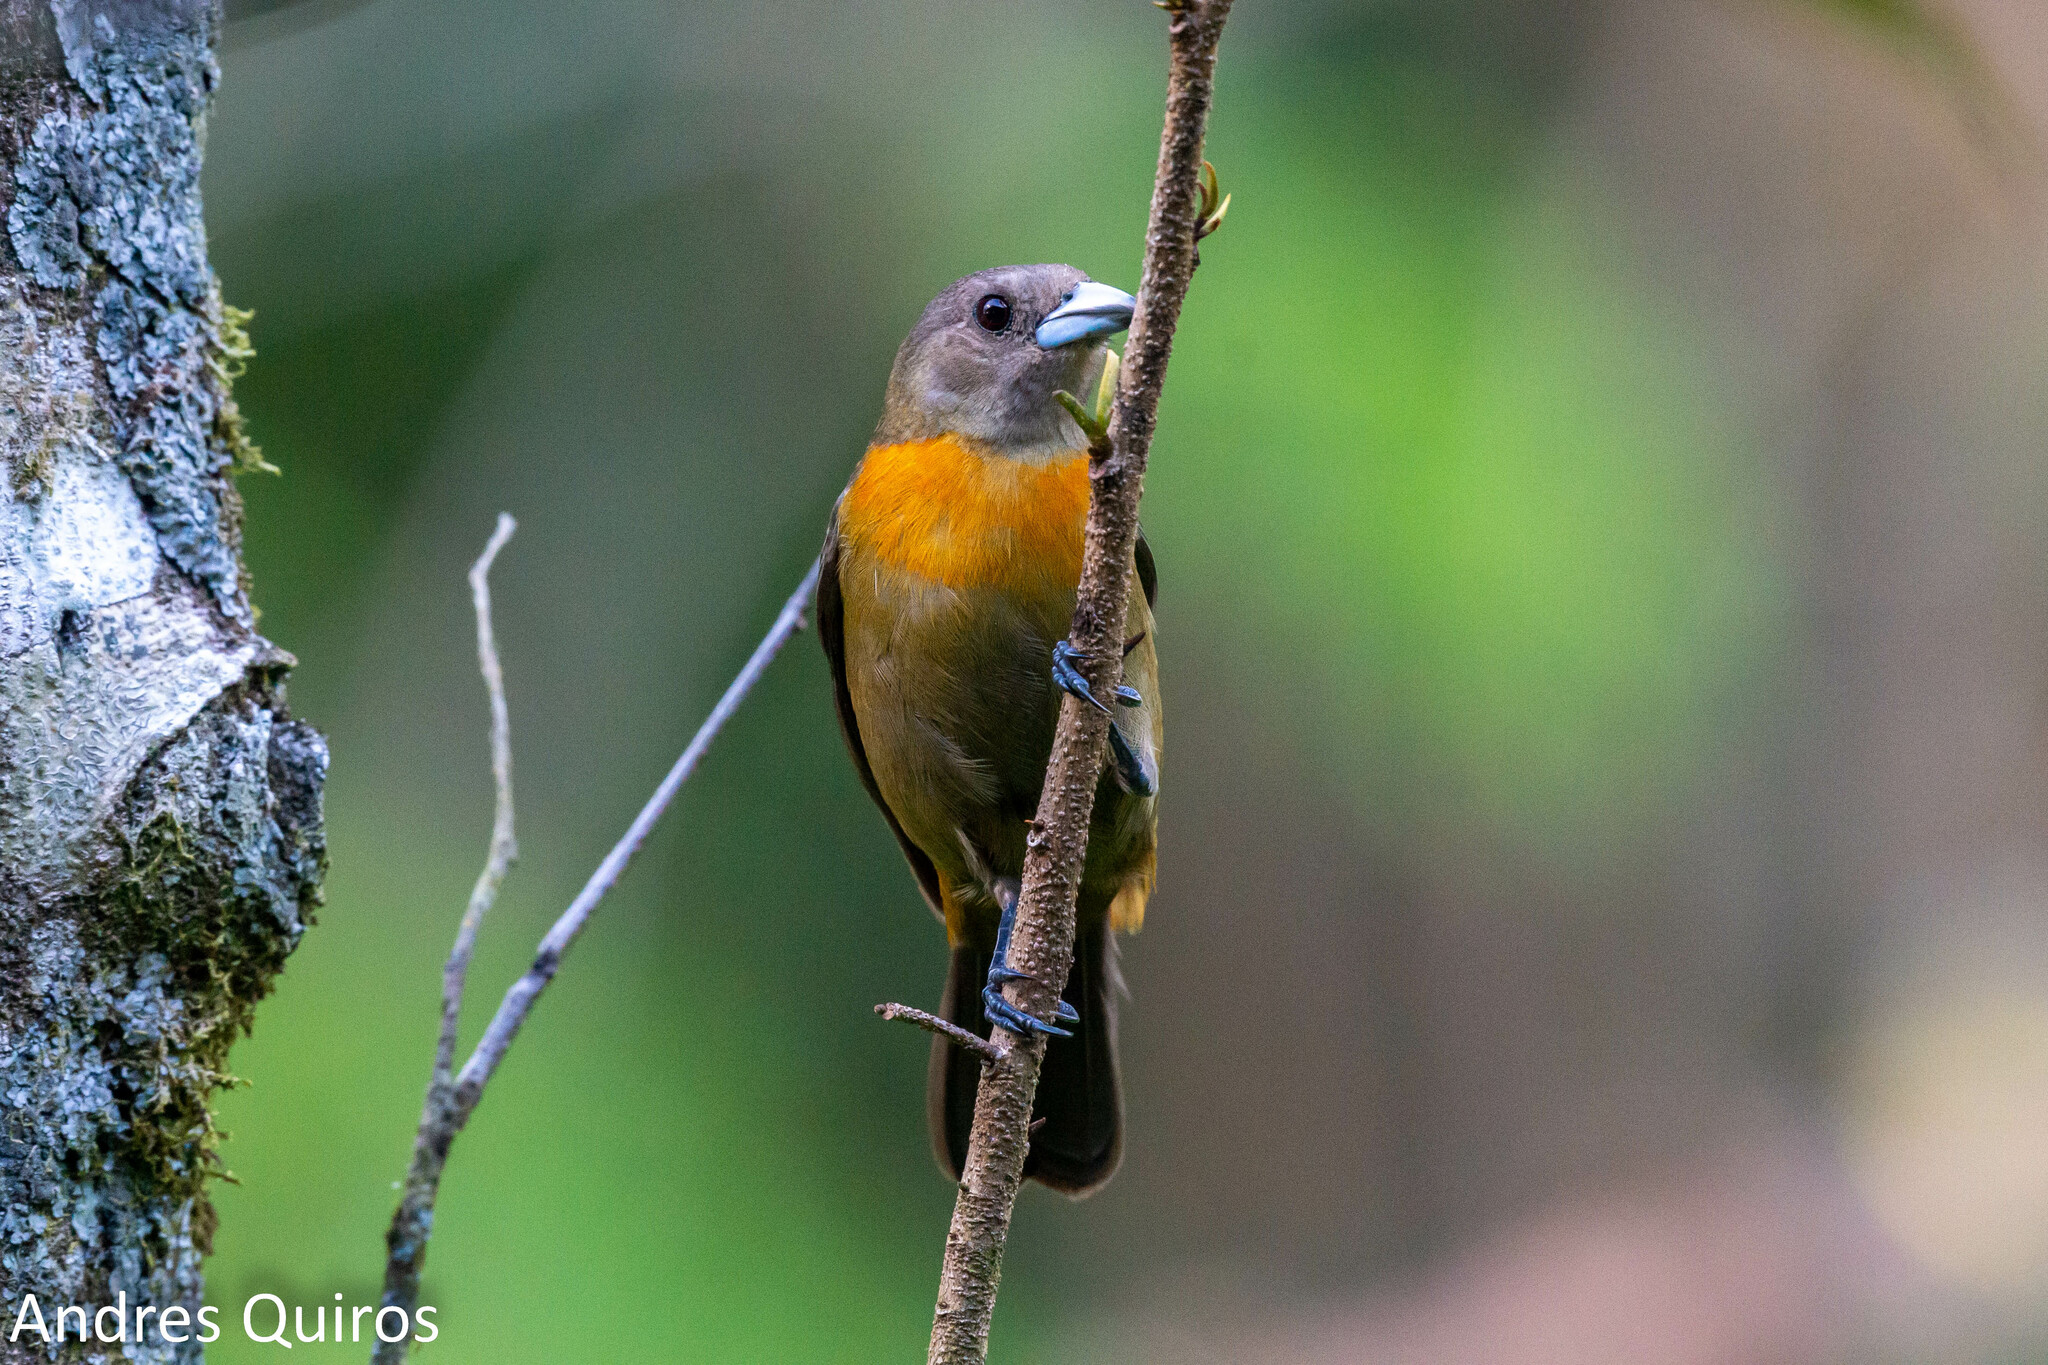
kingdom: Animalia
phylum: Chordata
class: Aves
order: Passeriformes
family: Thraupidae
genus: Ramphocelus
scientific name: Ramphocelus passerinii
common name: Passerini's tanager
